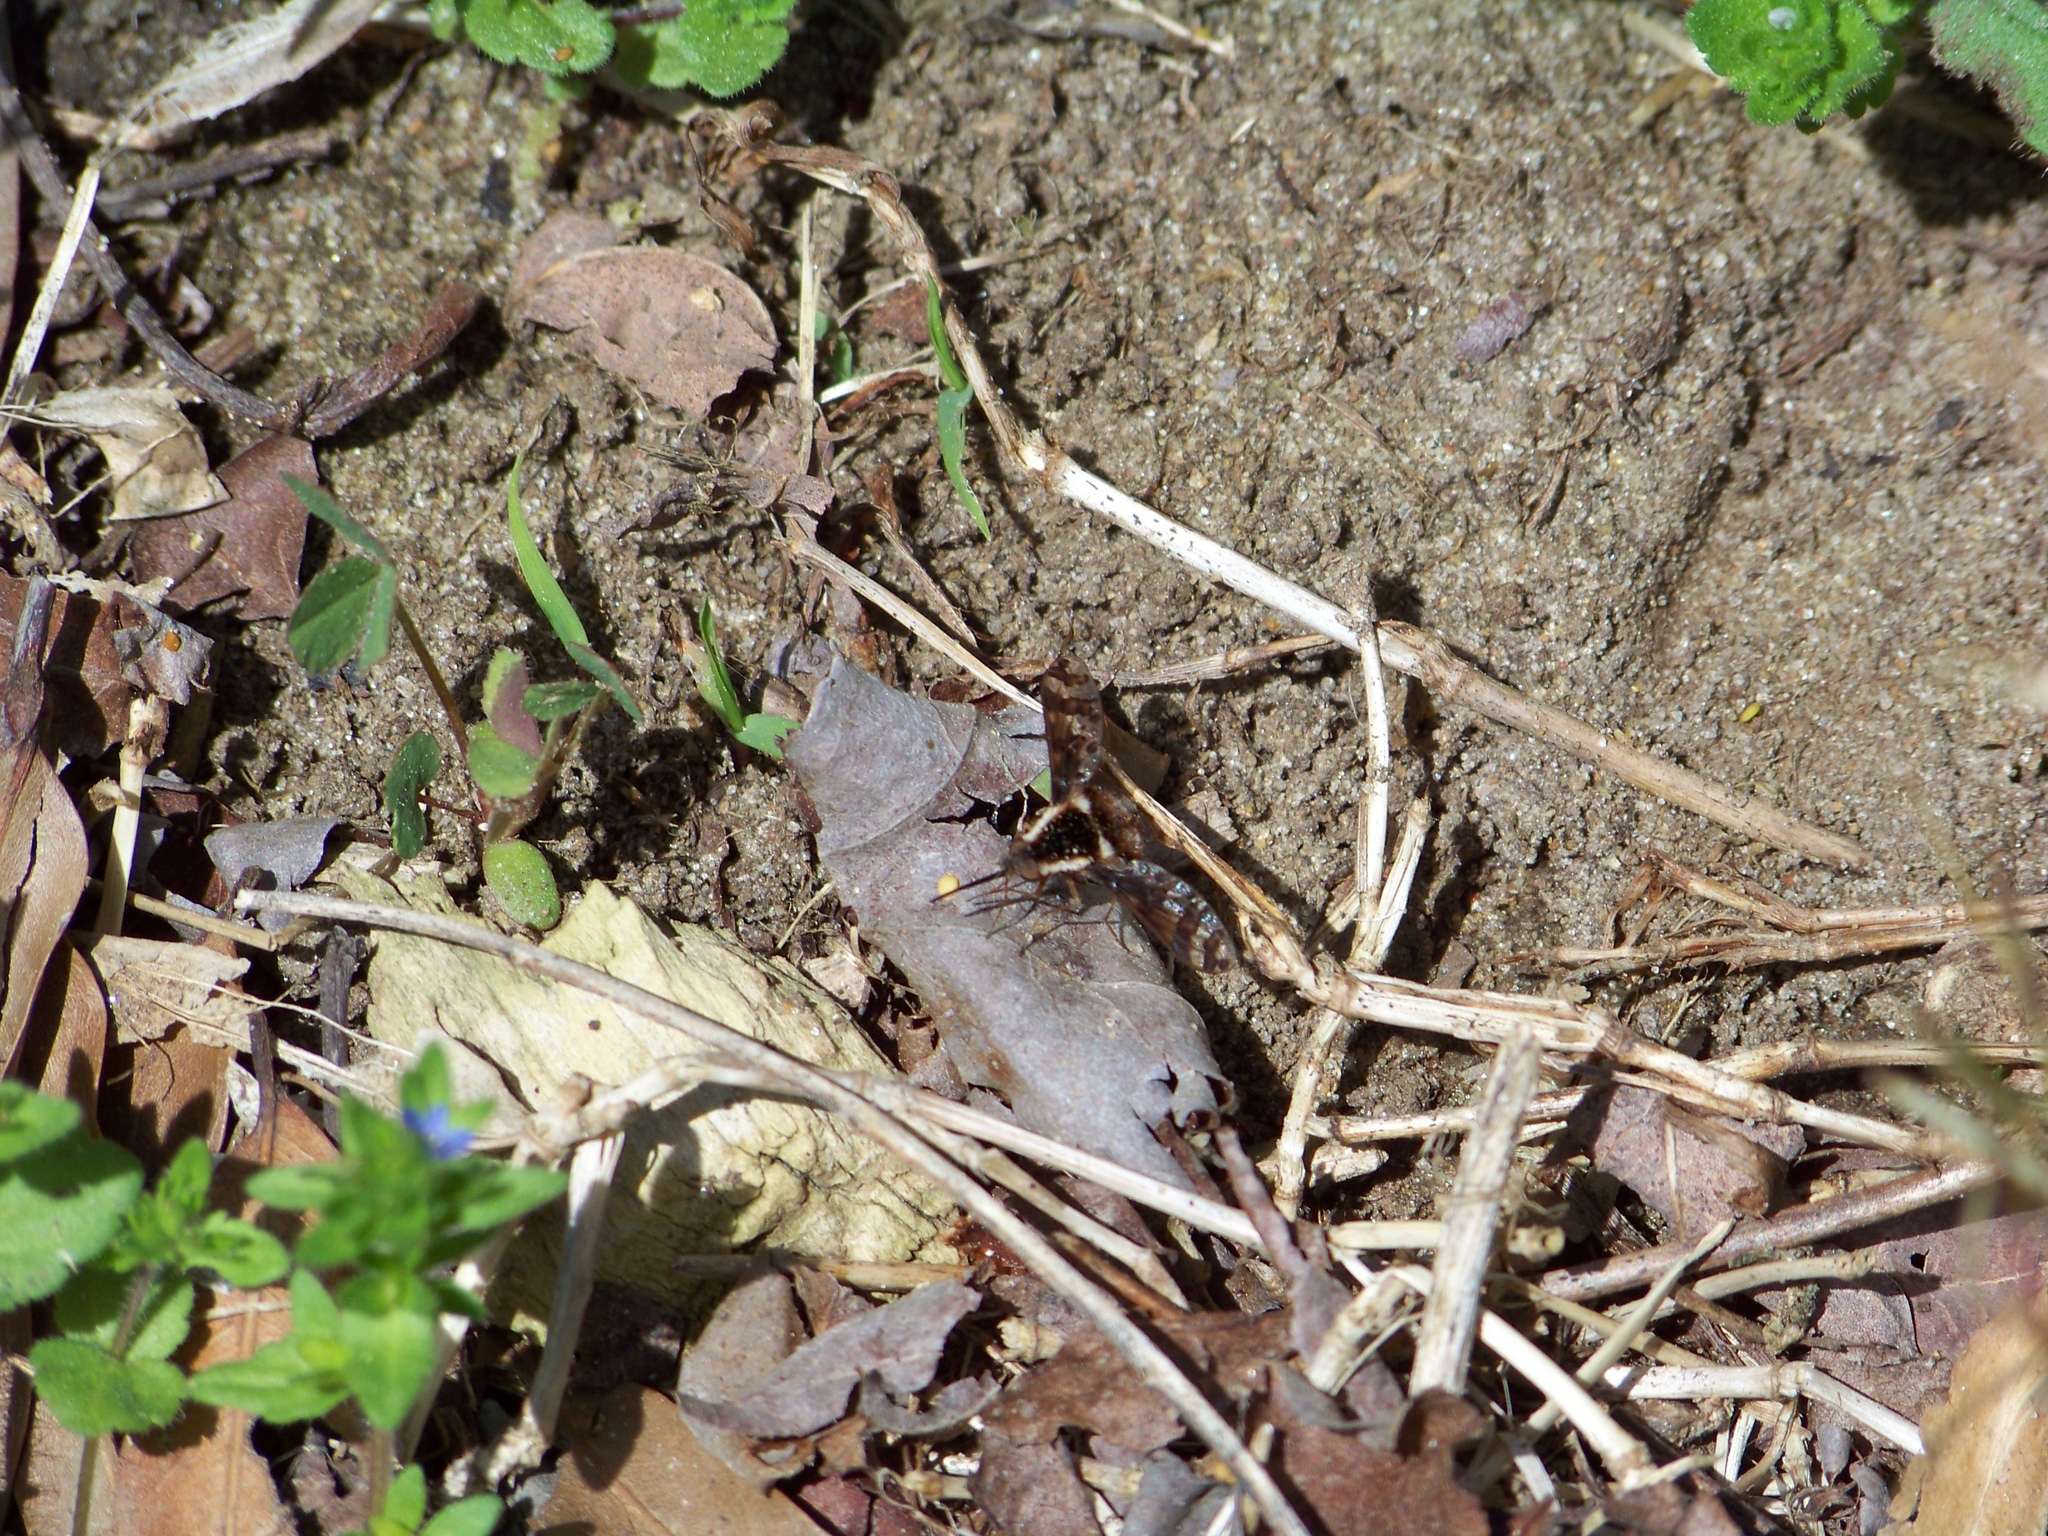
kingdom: Animalia
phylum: Arthropoda
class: Insecta
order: Diptera
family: Bombyliidae
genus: Bombylius
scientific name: Bombylius pulchellus
